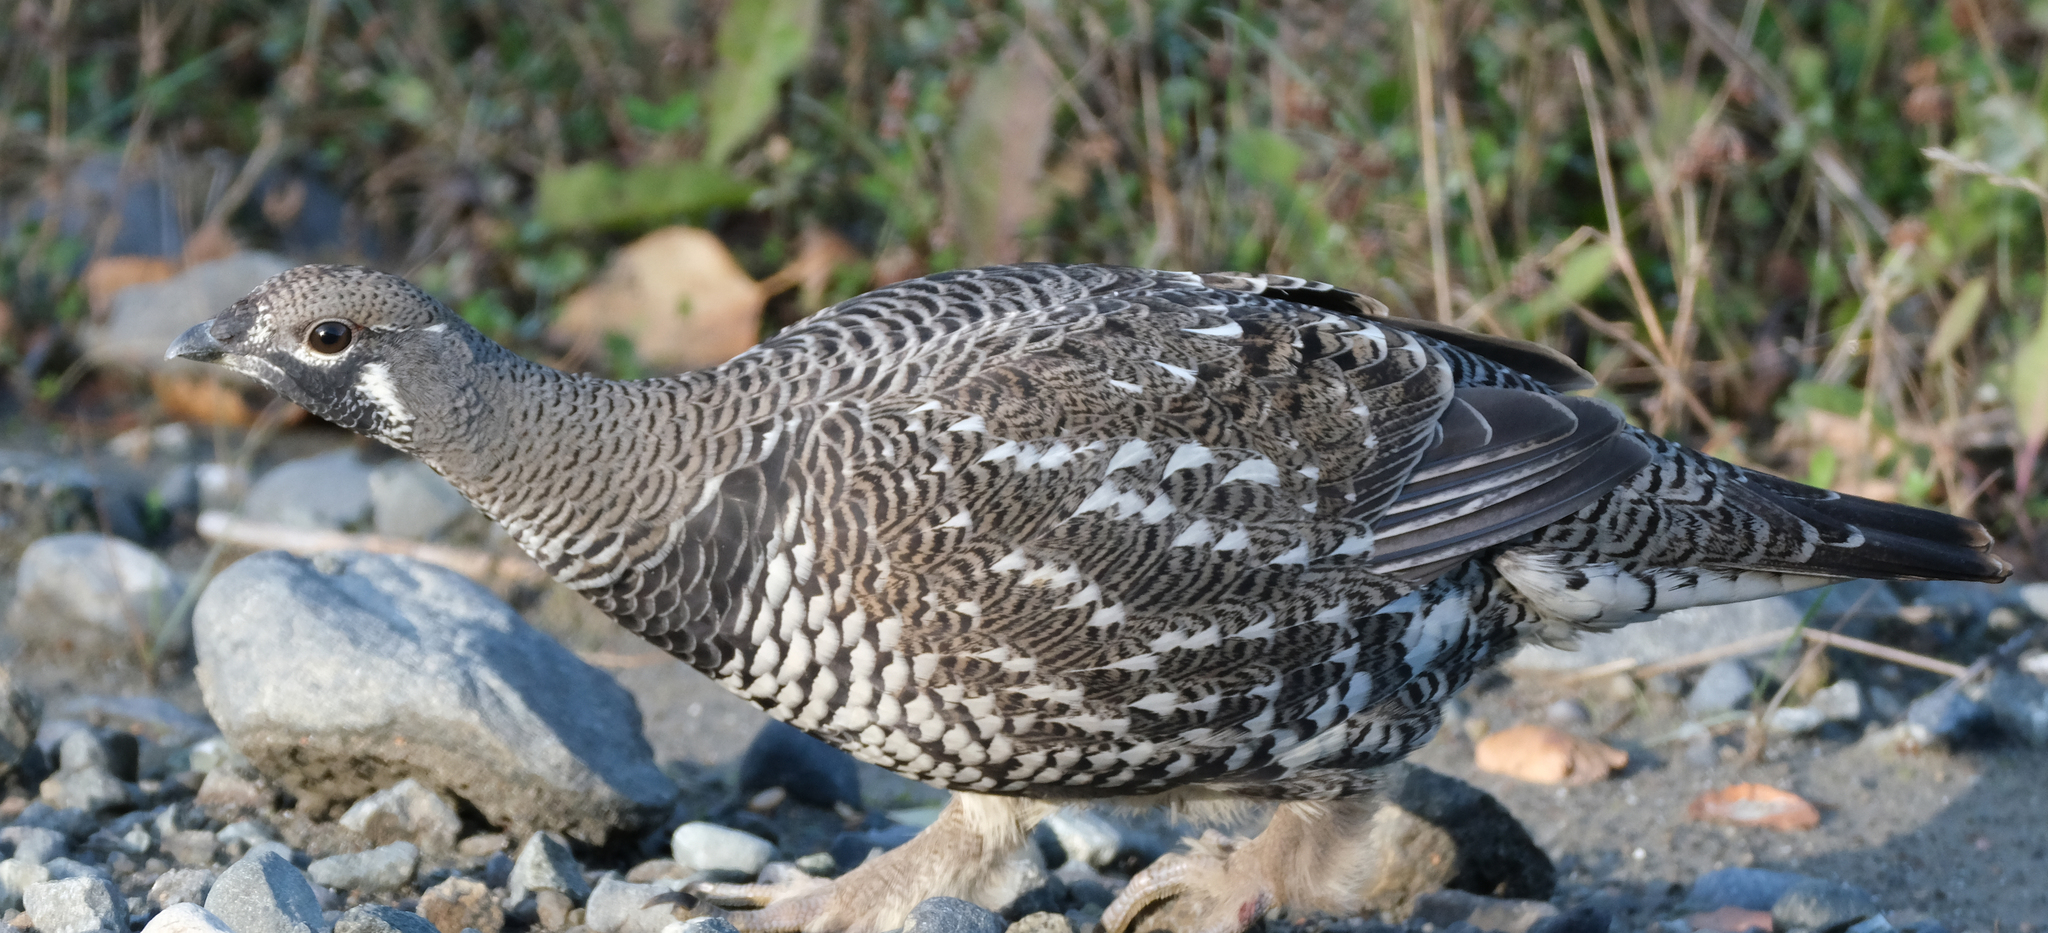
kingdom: Animalia
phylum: Chordata
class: Aves
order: Galliformes
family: Phasianidae
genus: Canachites
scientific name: Canachites canadensis
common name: Spruce grouse
